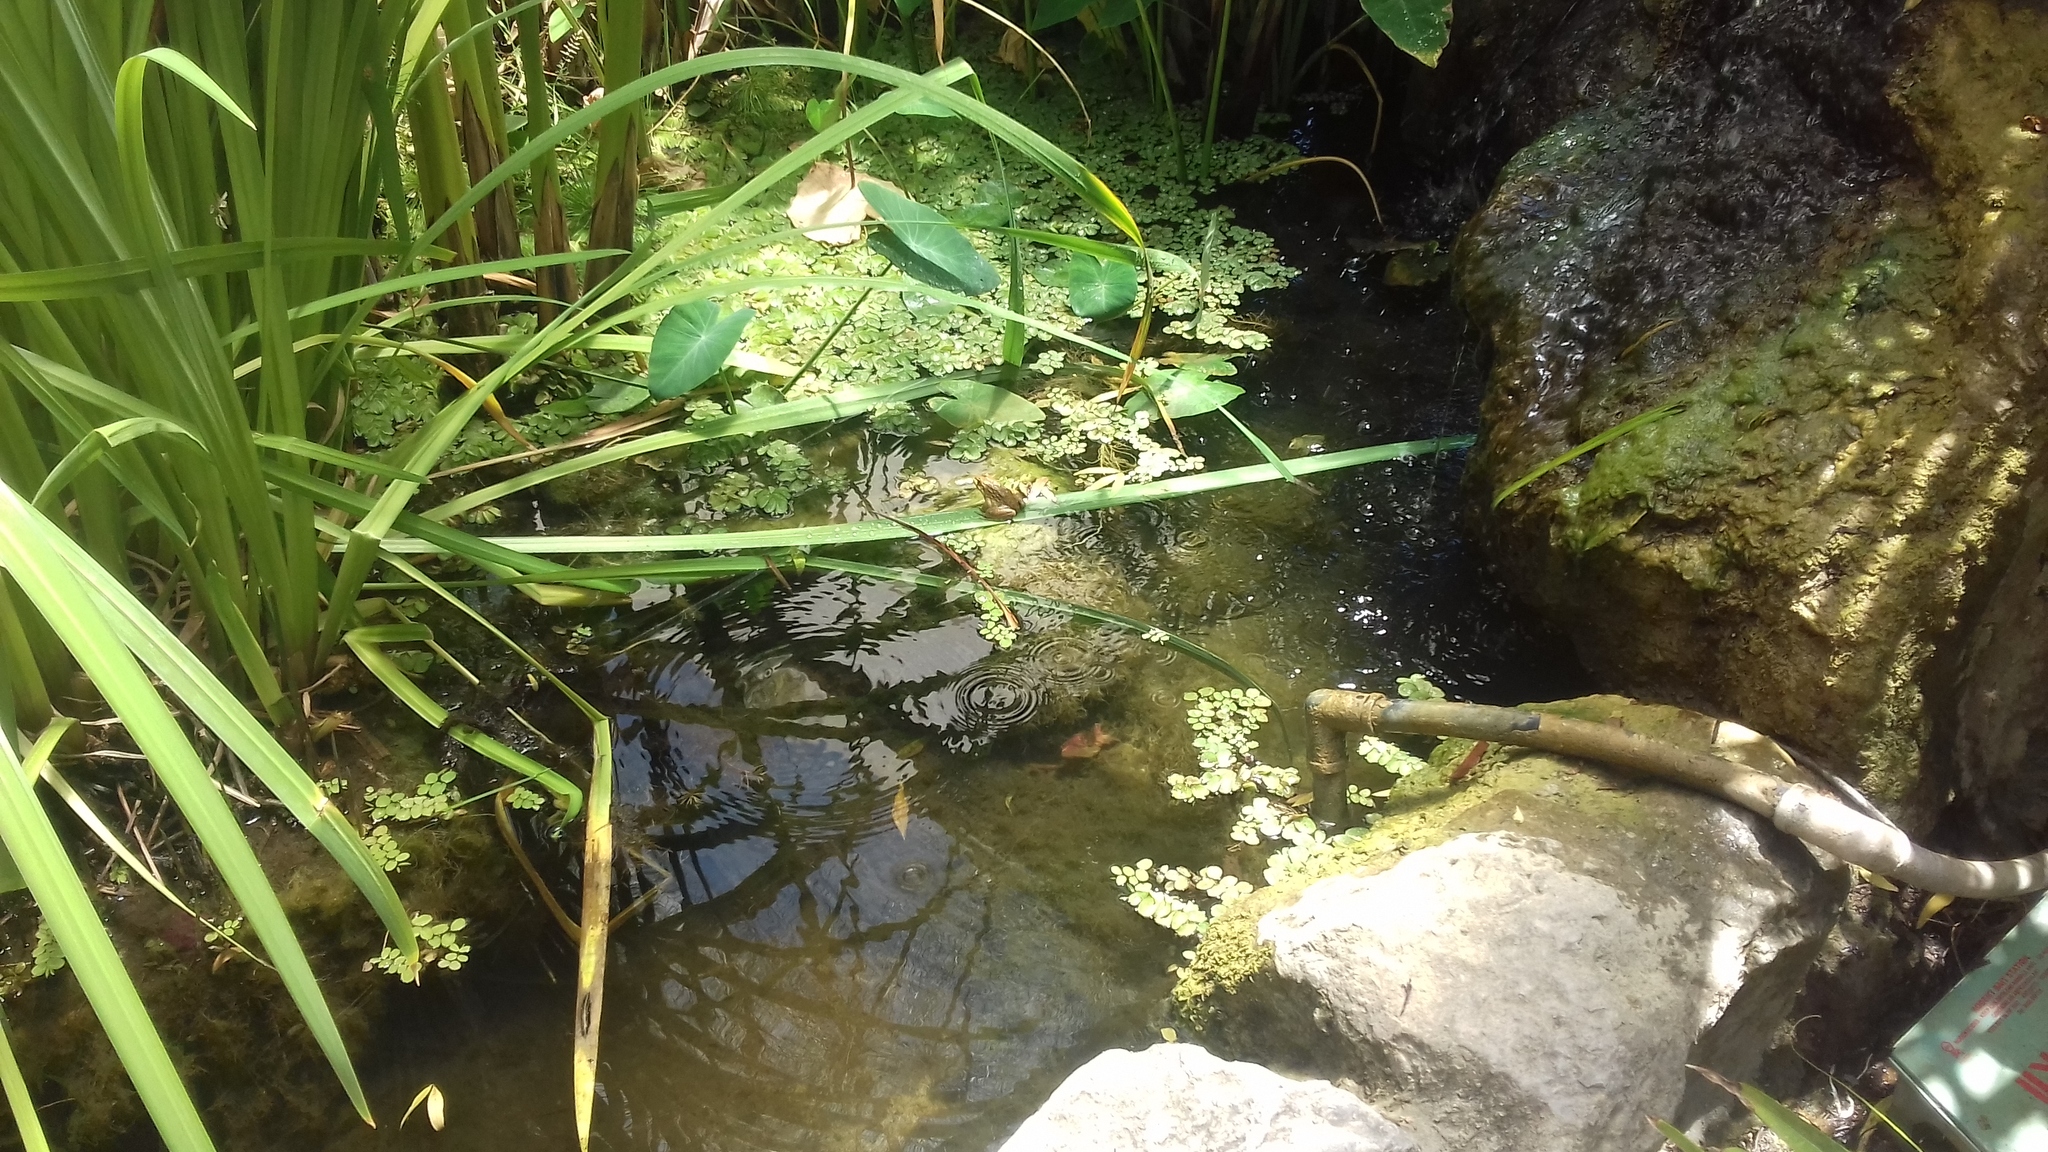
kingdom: Animalia
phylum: Chordata
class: Amphibia
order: Anura
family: Pyxicephalidae
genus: Amietia
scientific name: Amietia fuscigula
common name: Cape rana
